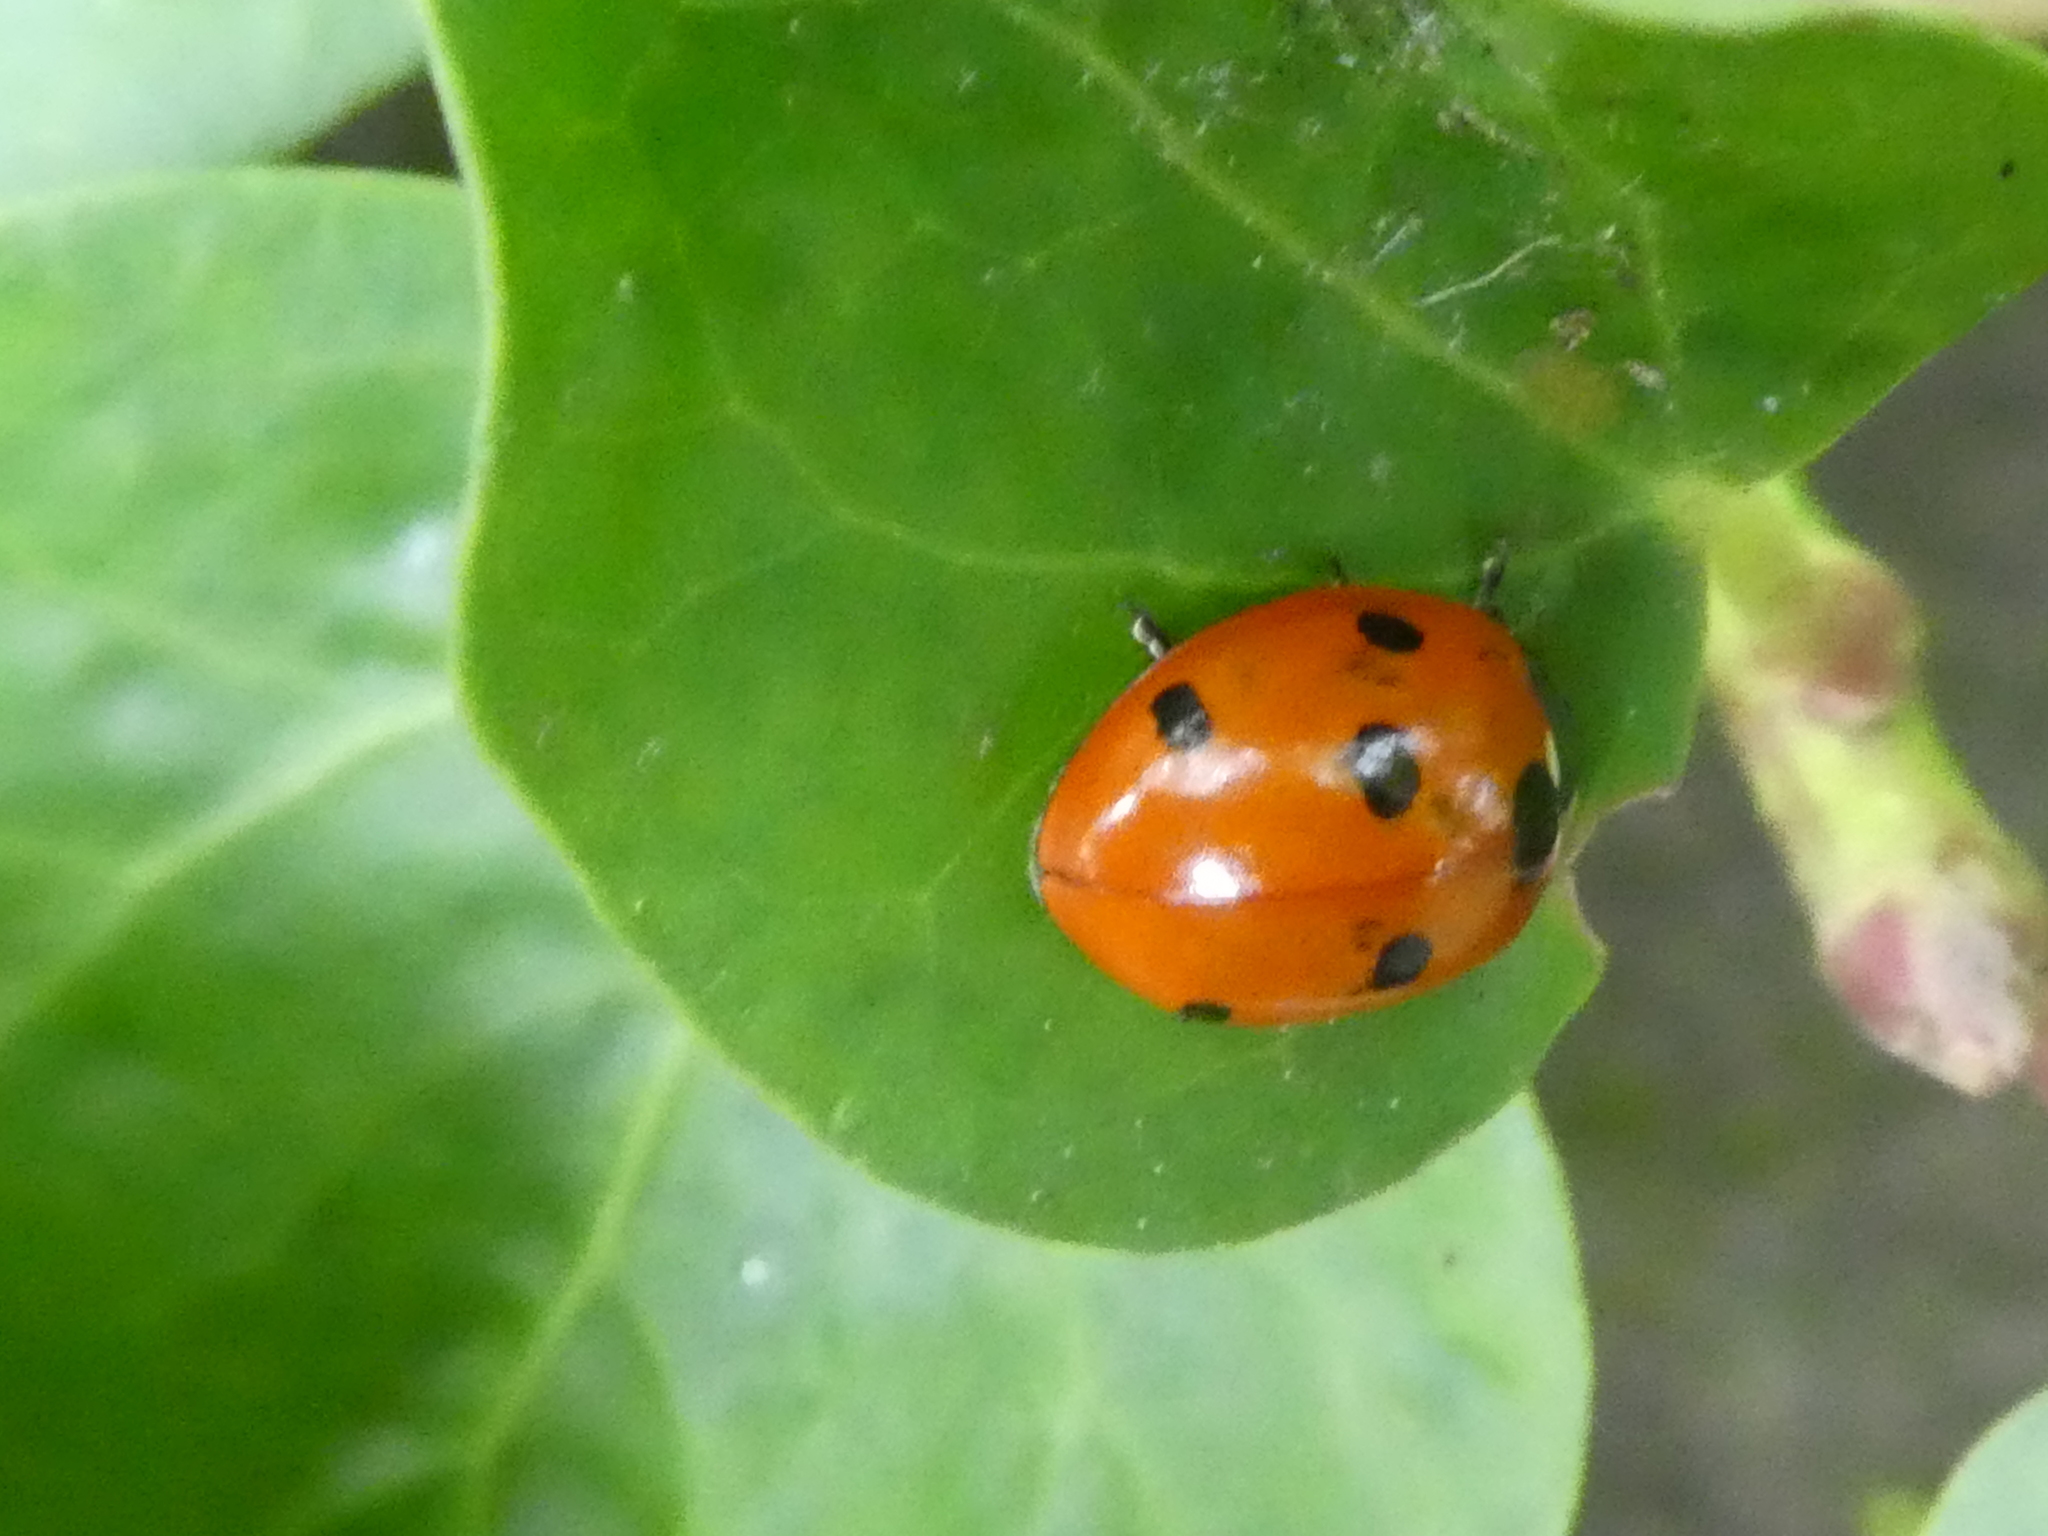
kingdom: Animalia
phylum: Arthropoda
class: Insecta
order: Coleoptera
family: Coccinellidae
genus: Coccinella
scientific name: Coccinella septempunctata
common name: Sevenspotted lady beetle
